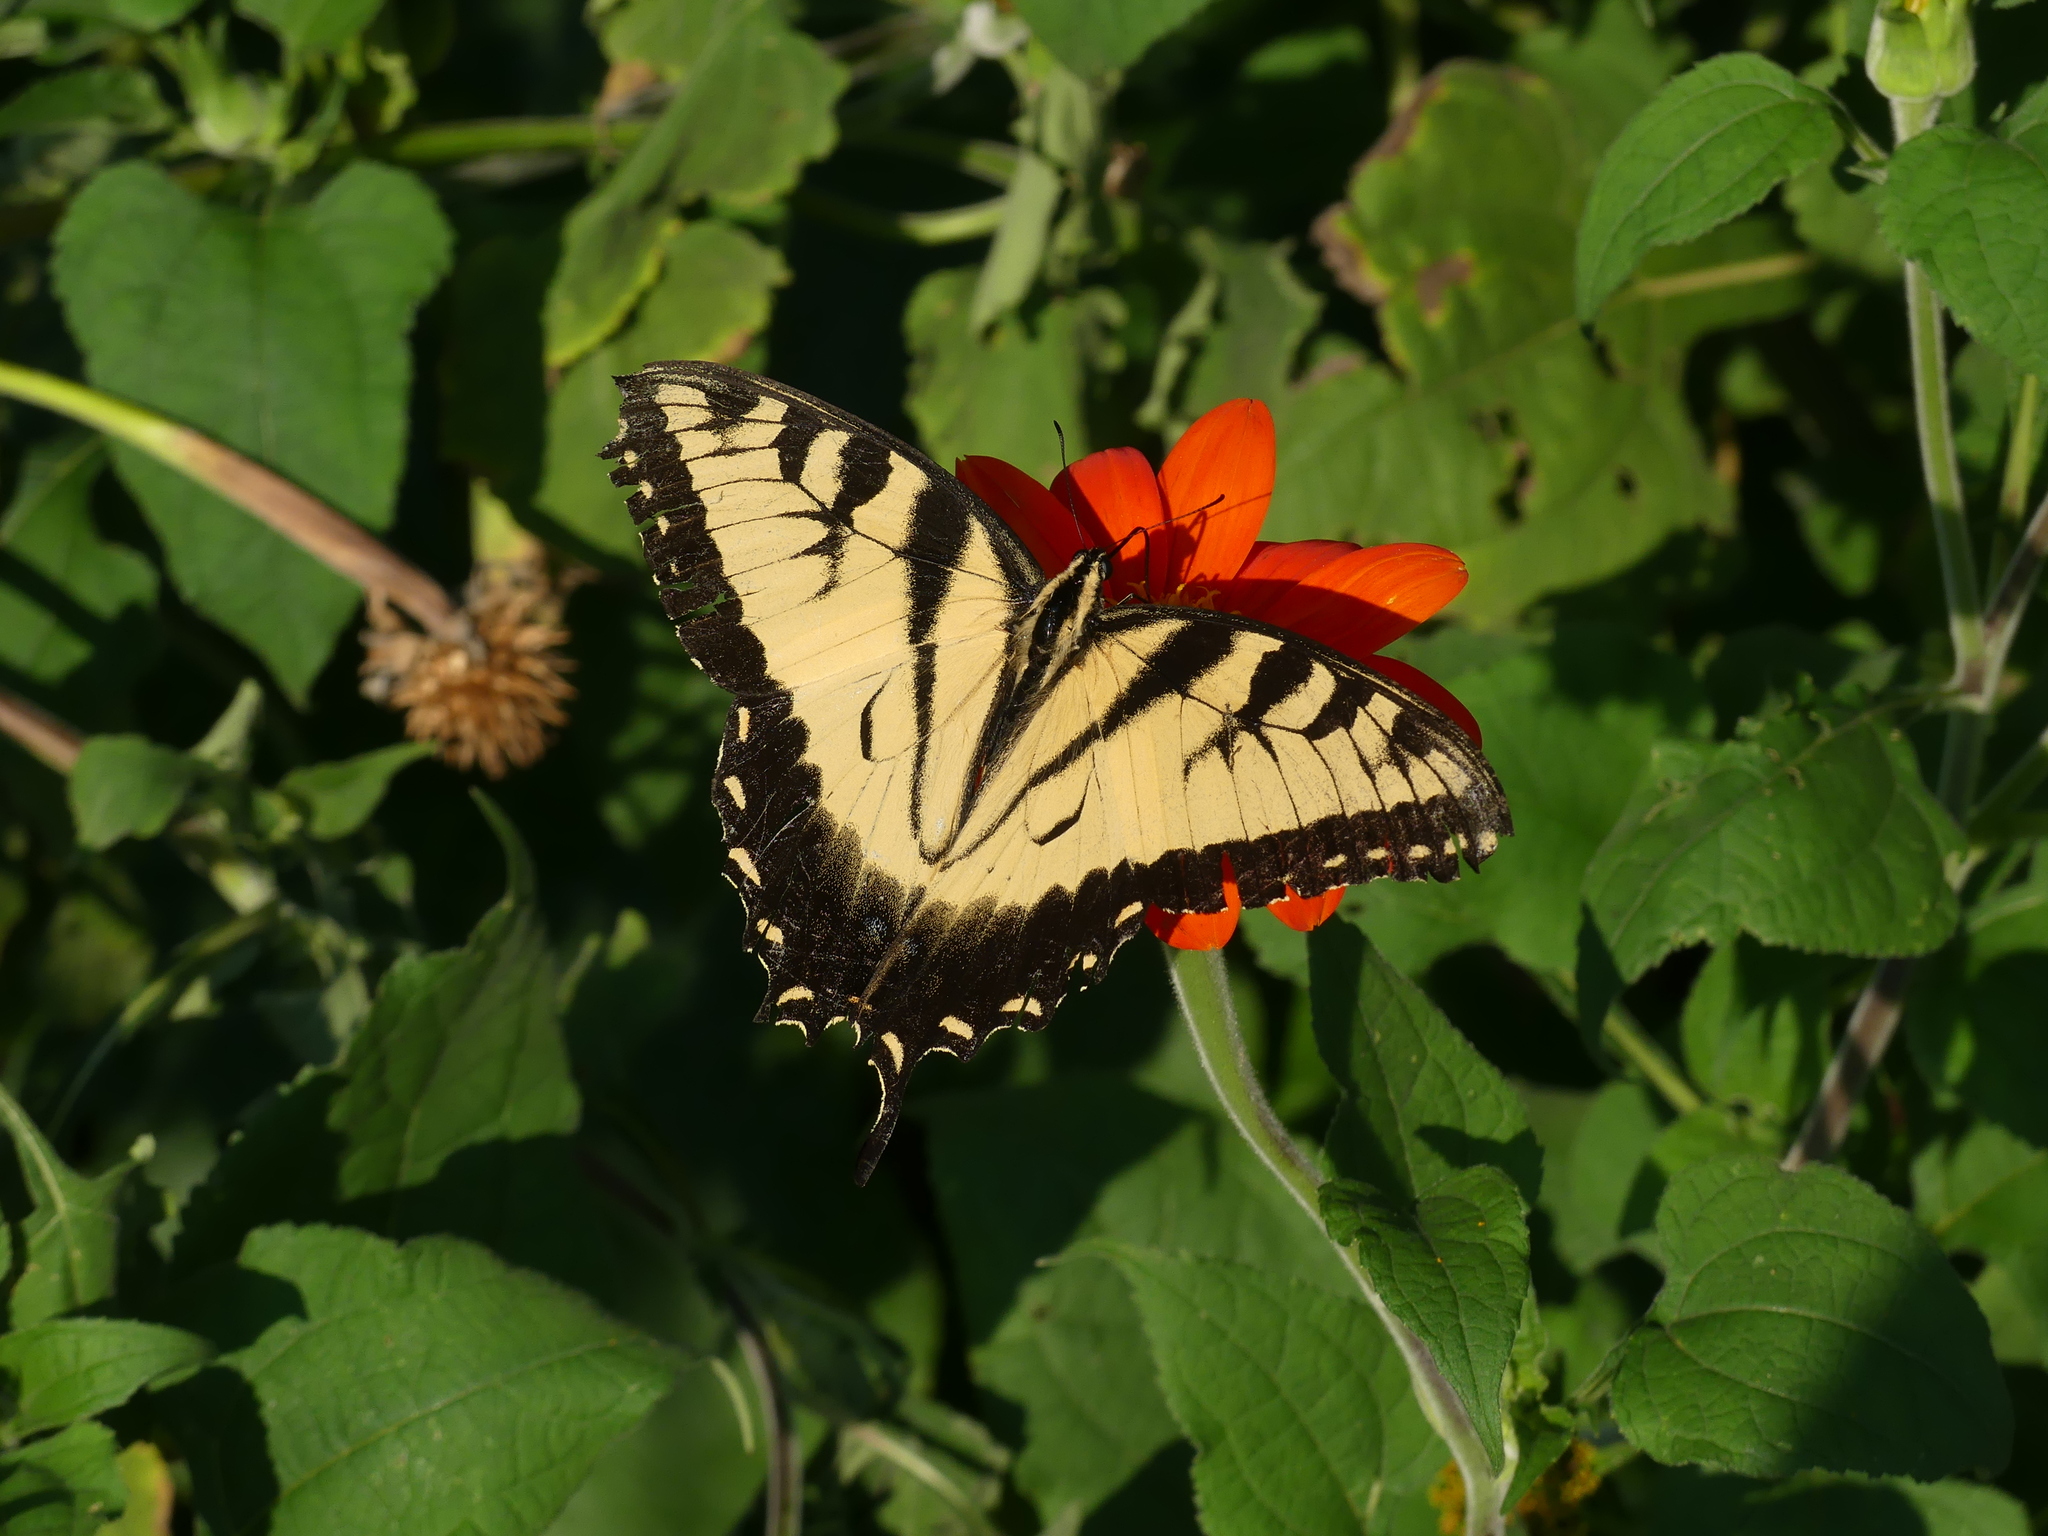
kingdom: Animalia
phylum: Arthropoda
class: Insecta
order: Lepidoptera
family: Papilionidae
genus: Papilio
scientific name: Papilio glaucus
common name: Tiger swallowtail
